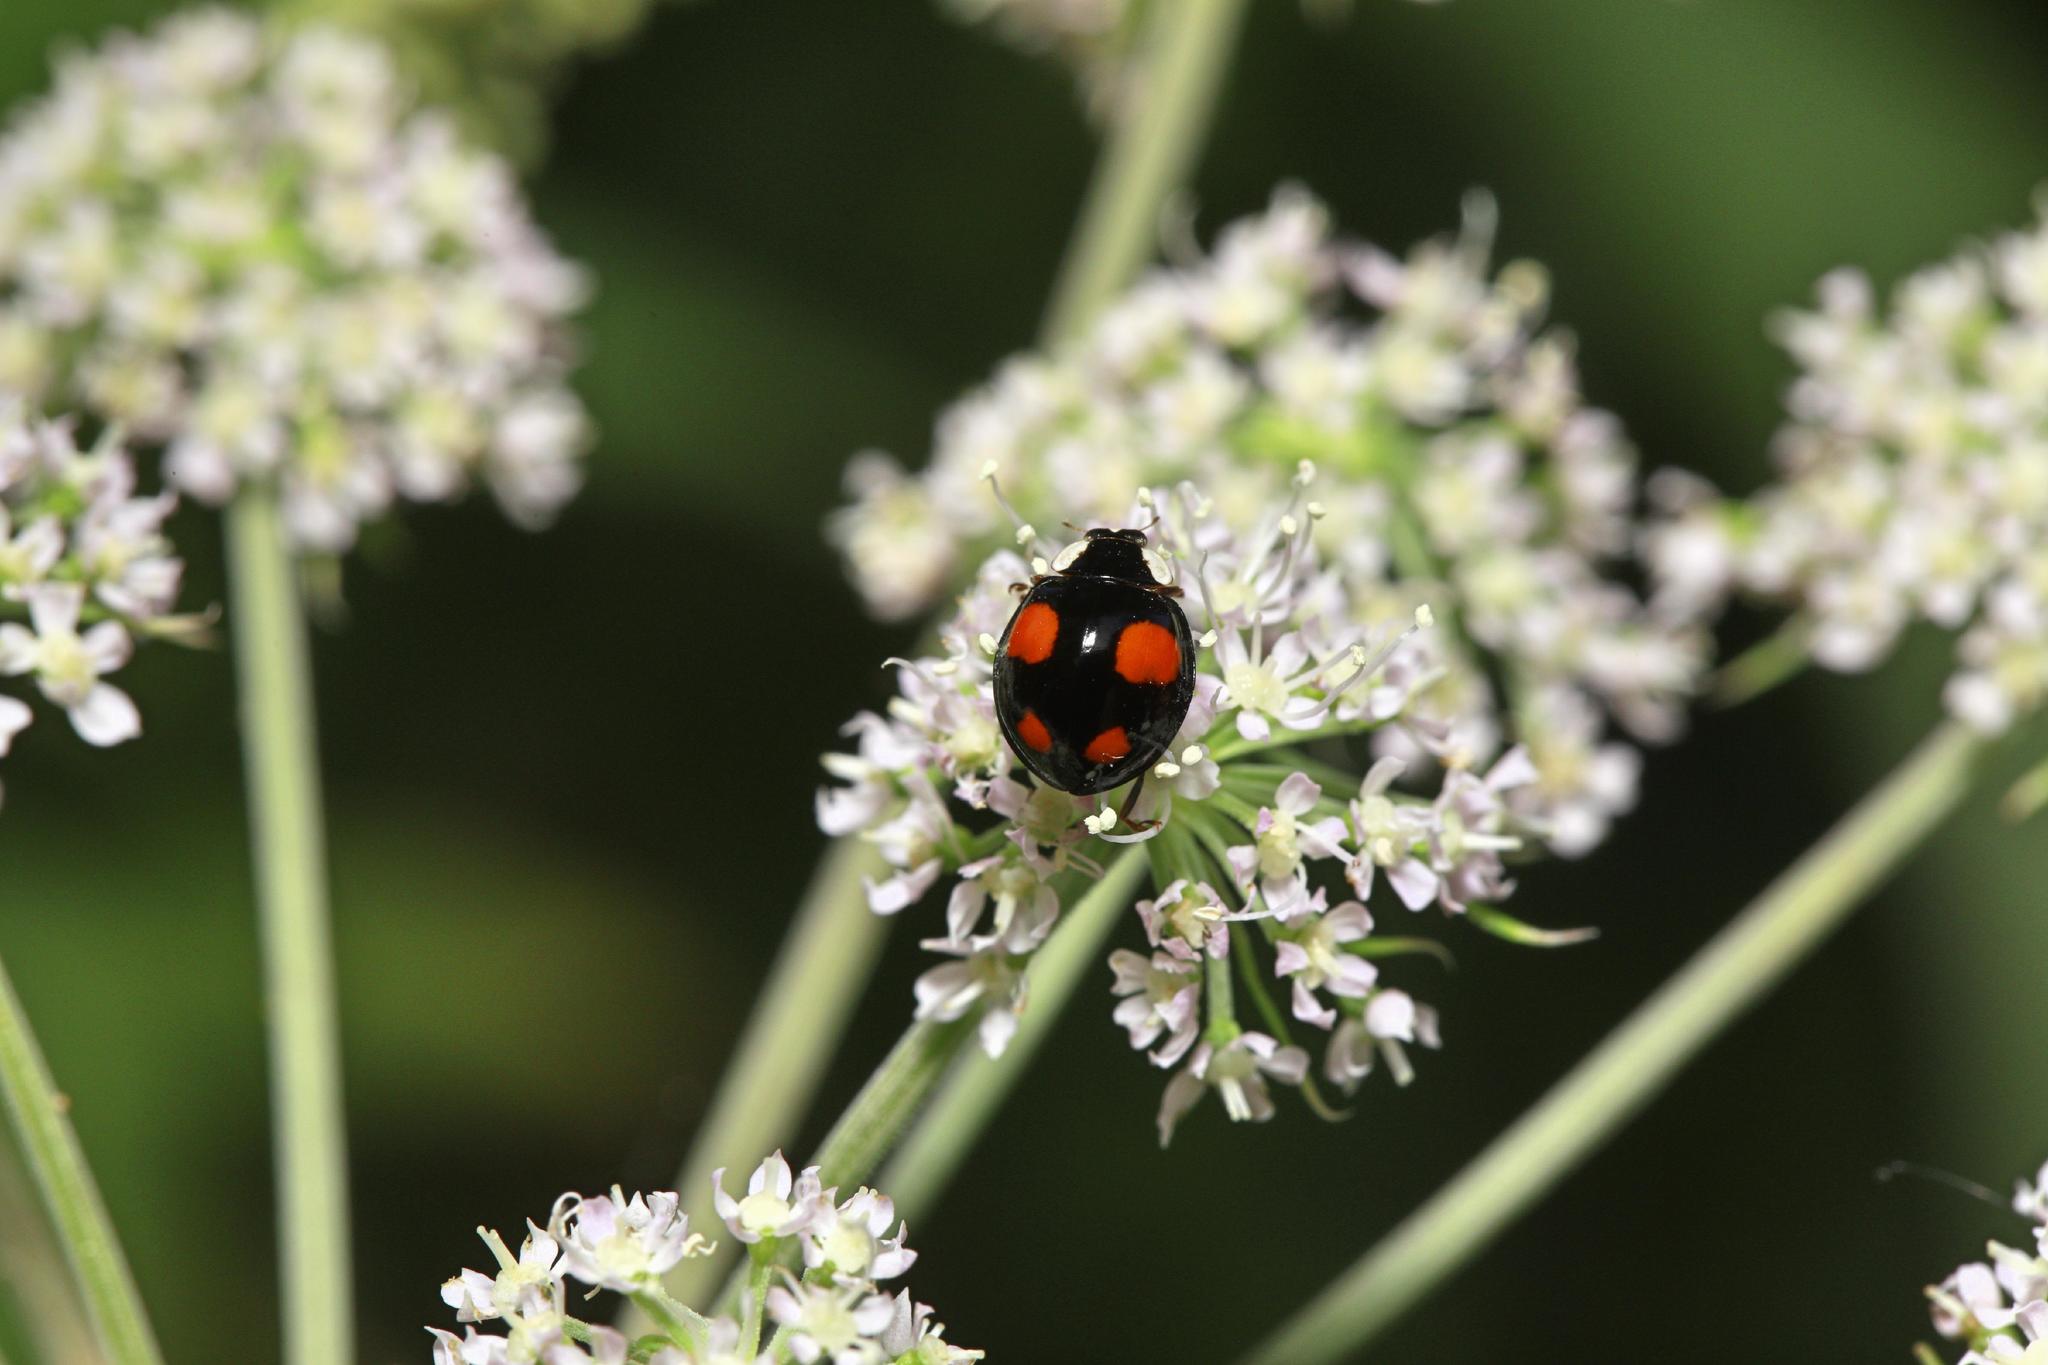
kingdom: Animalia
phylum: Arthropoda
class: Insecta
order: Coleoptera
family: Coccinellidae
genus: Harmonia
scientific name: Harmonia axyridis
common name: Harlequin ladybird
